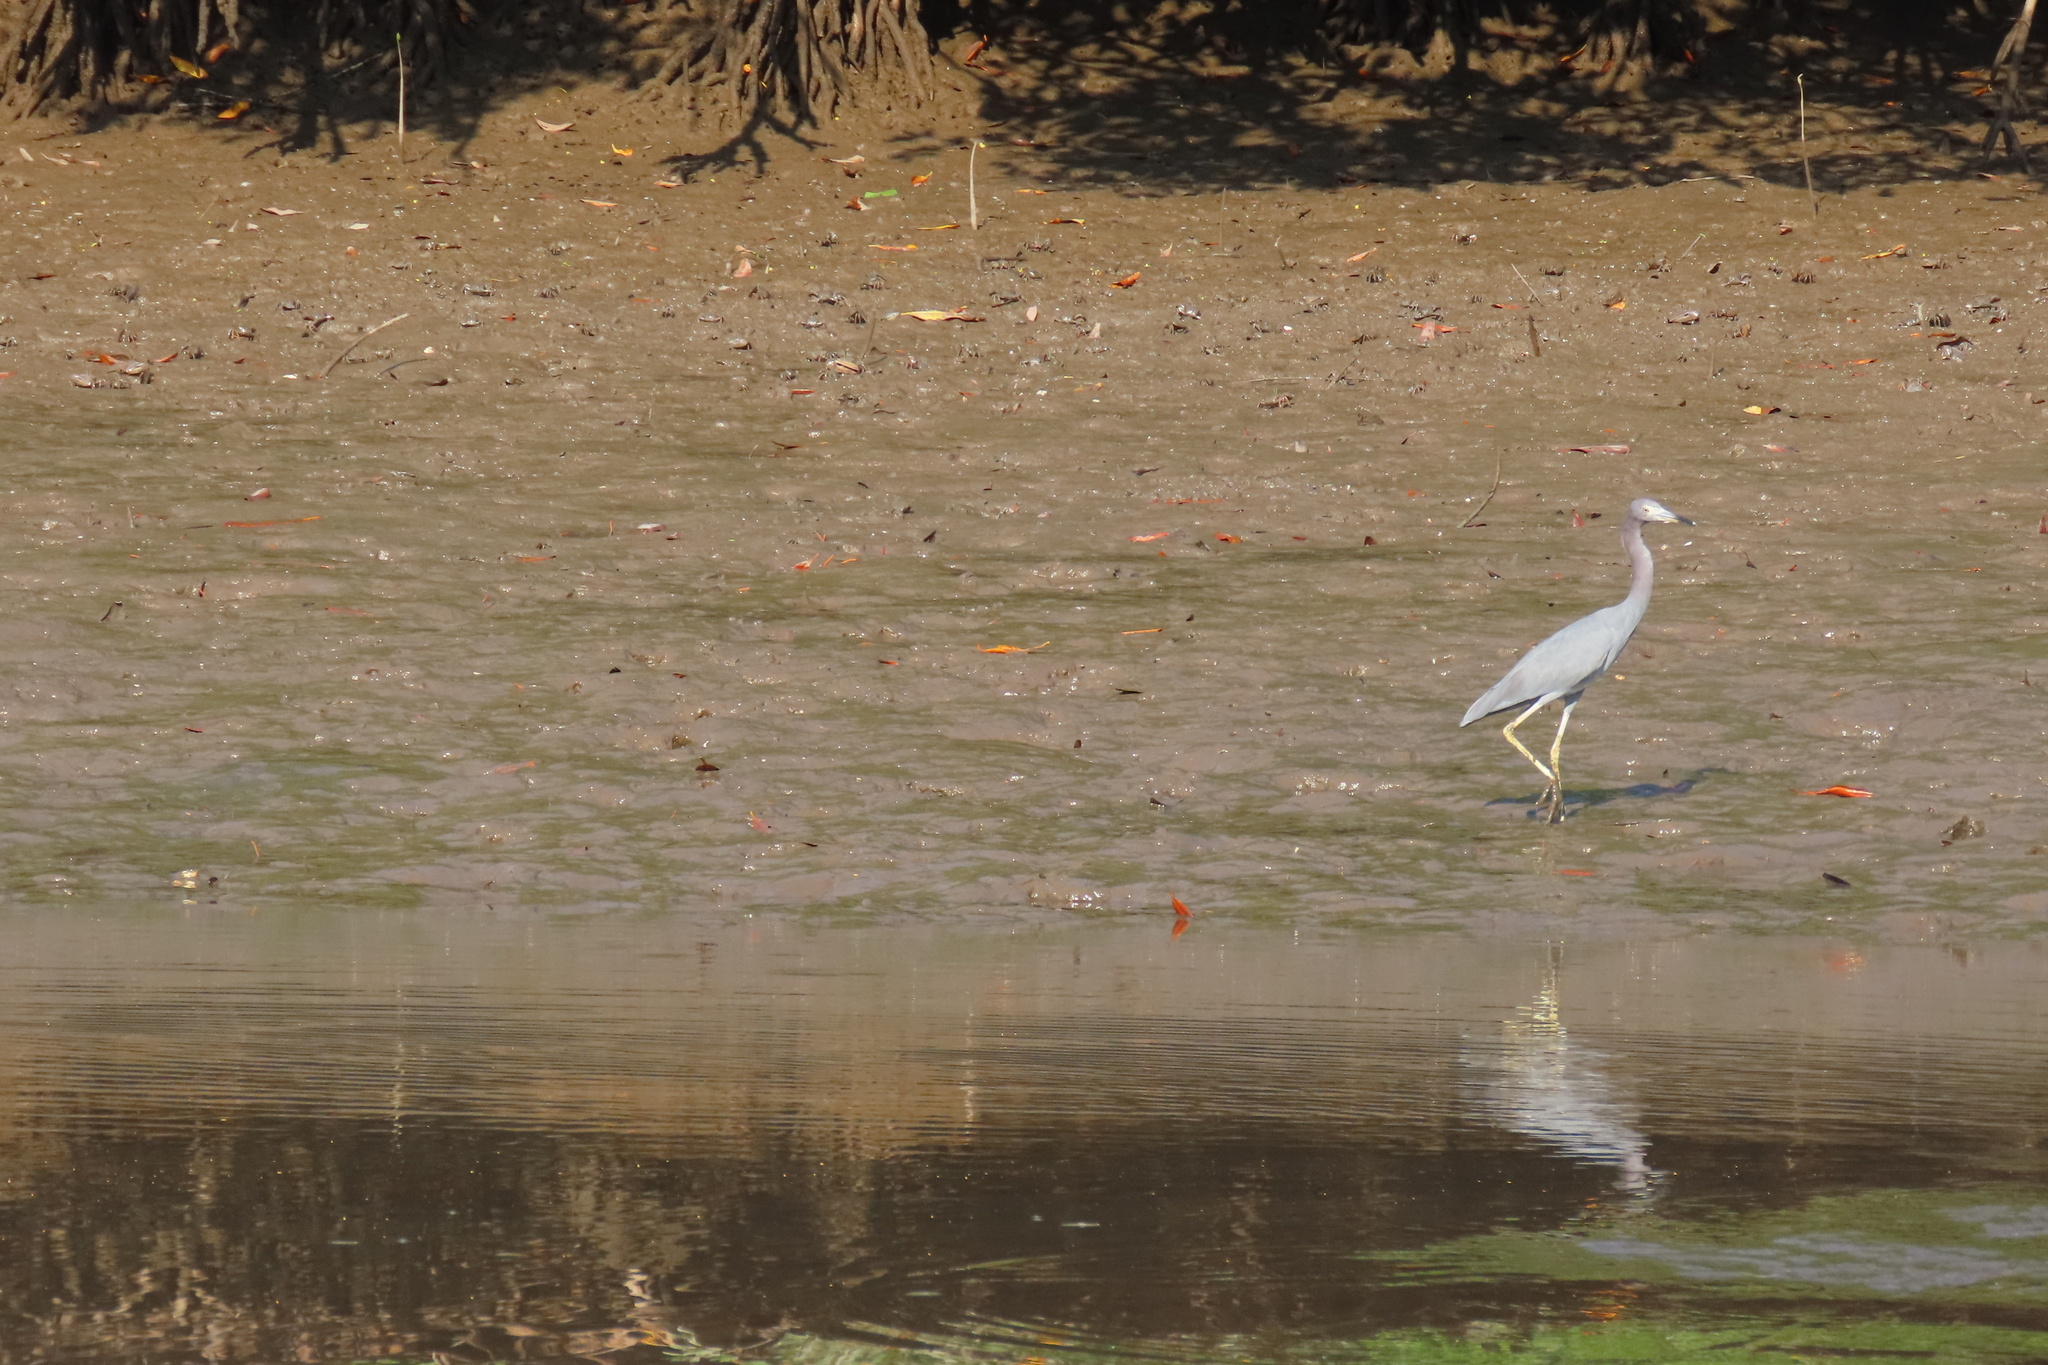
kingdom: Animalia
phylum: Chordata
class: Aves
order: Pelecaniformes
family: Ardeidae
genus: Egretta
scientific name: Egretta caerulea
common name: Little blue heron
